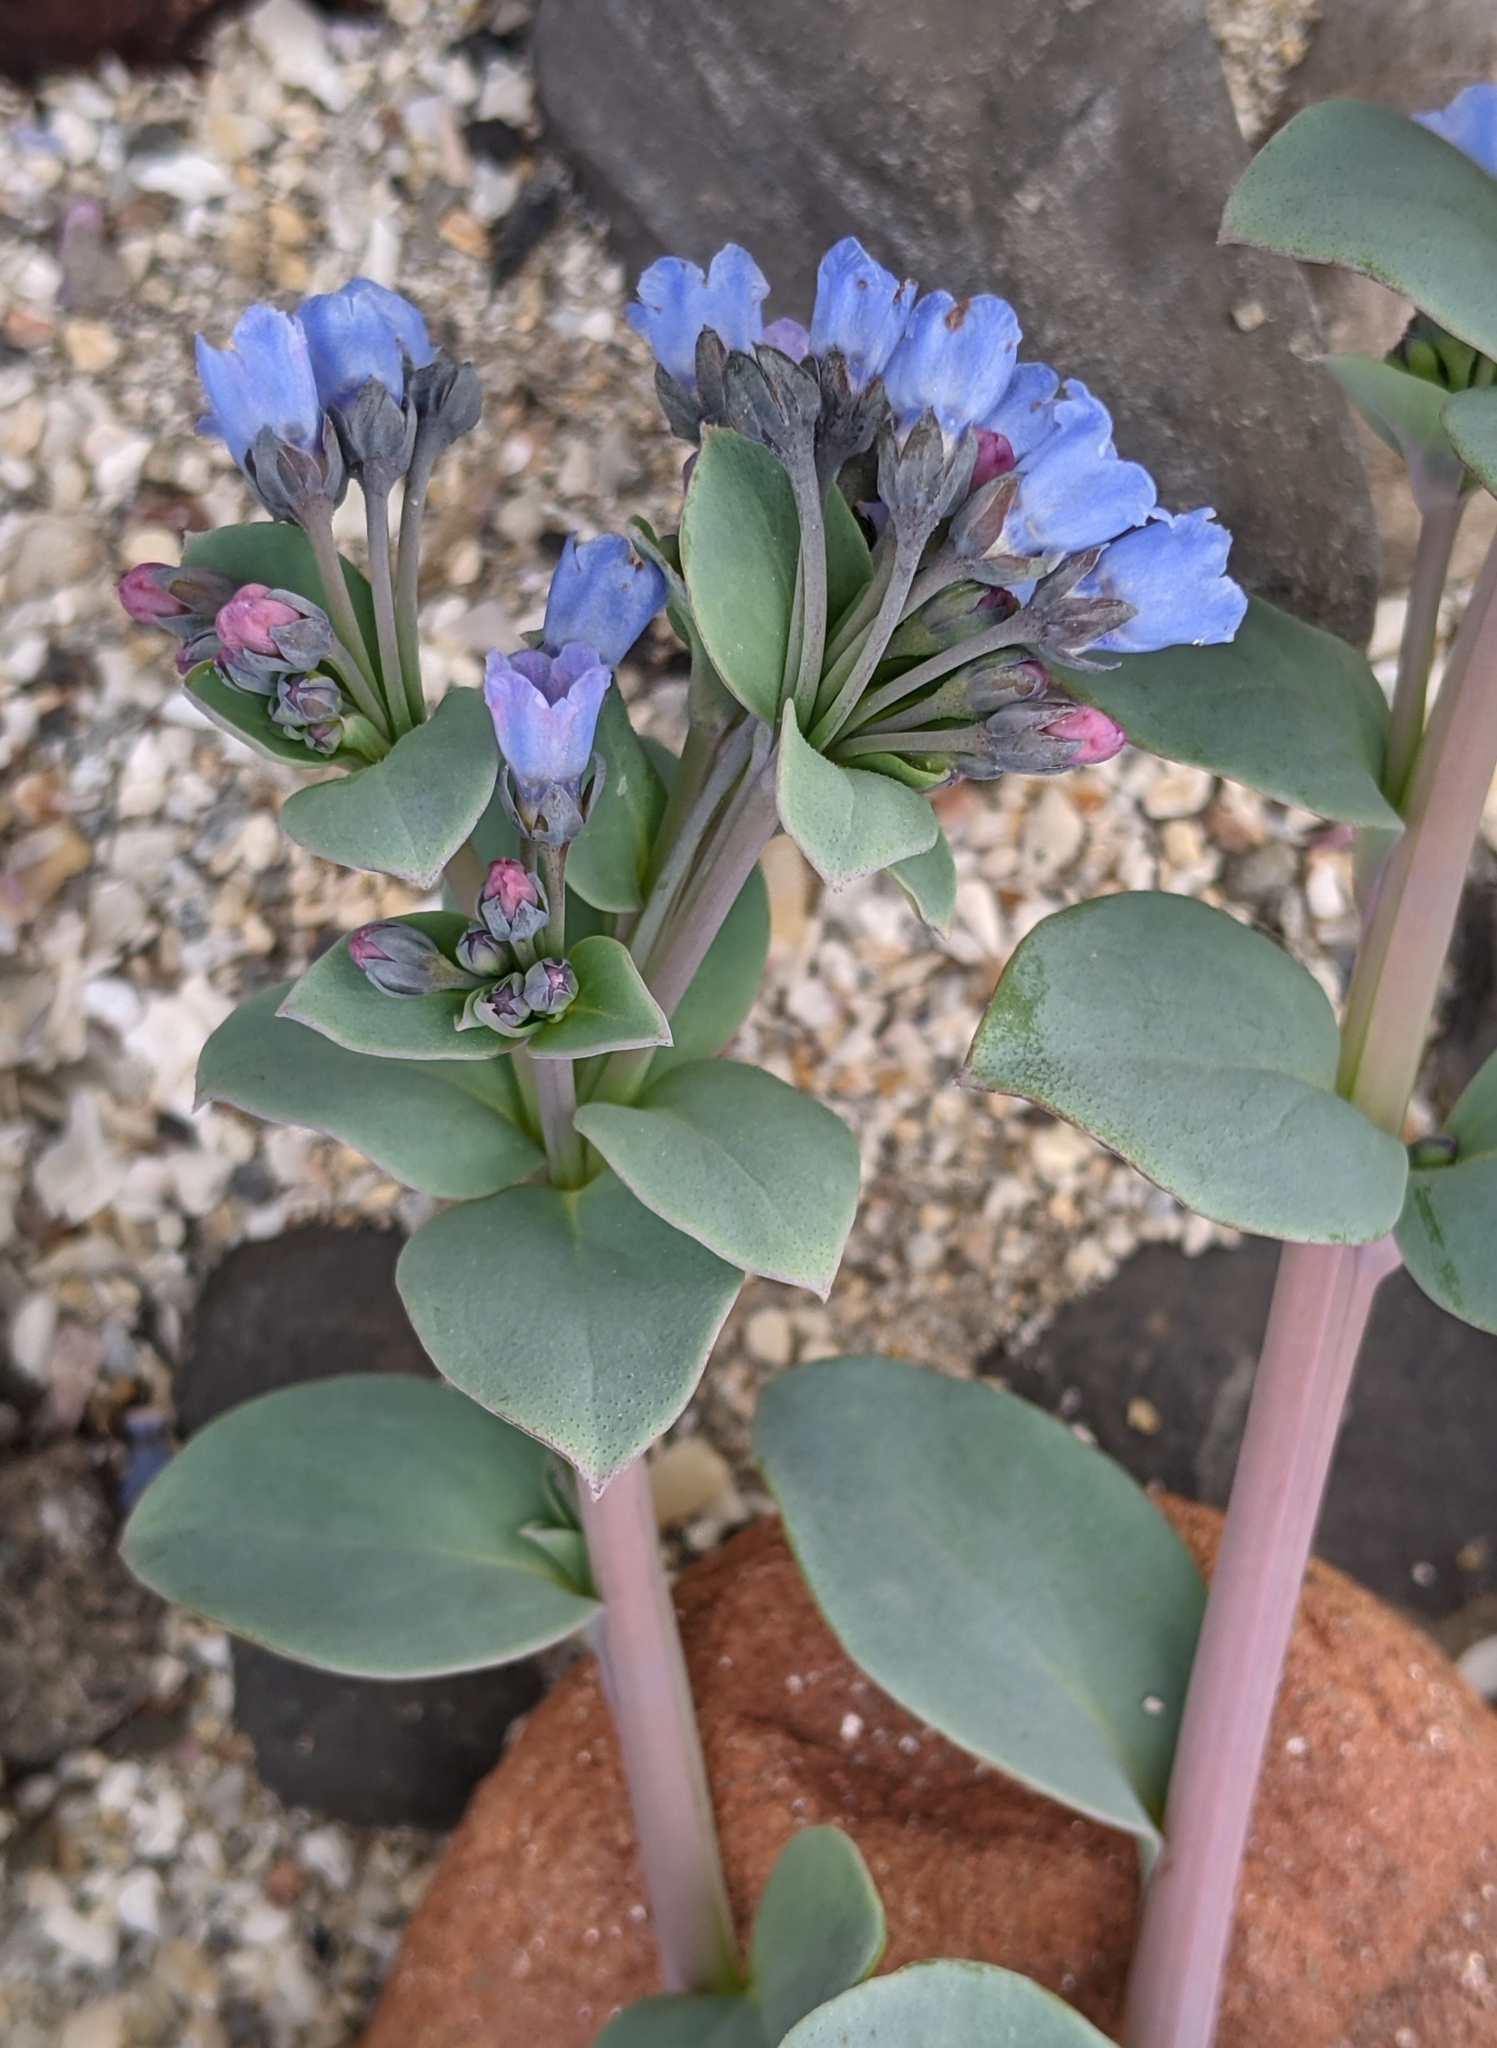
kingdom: Plantae
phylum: Tracheophyta
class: Magnoliopsida
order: Boraginales
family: Boraginaceae
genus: Mertensia
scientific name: Mertensia maritima
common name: Oysterplant
